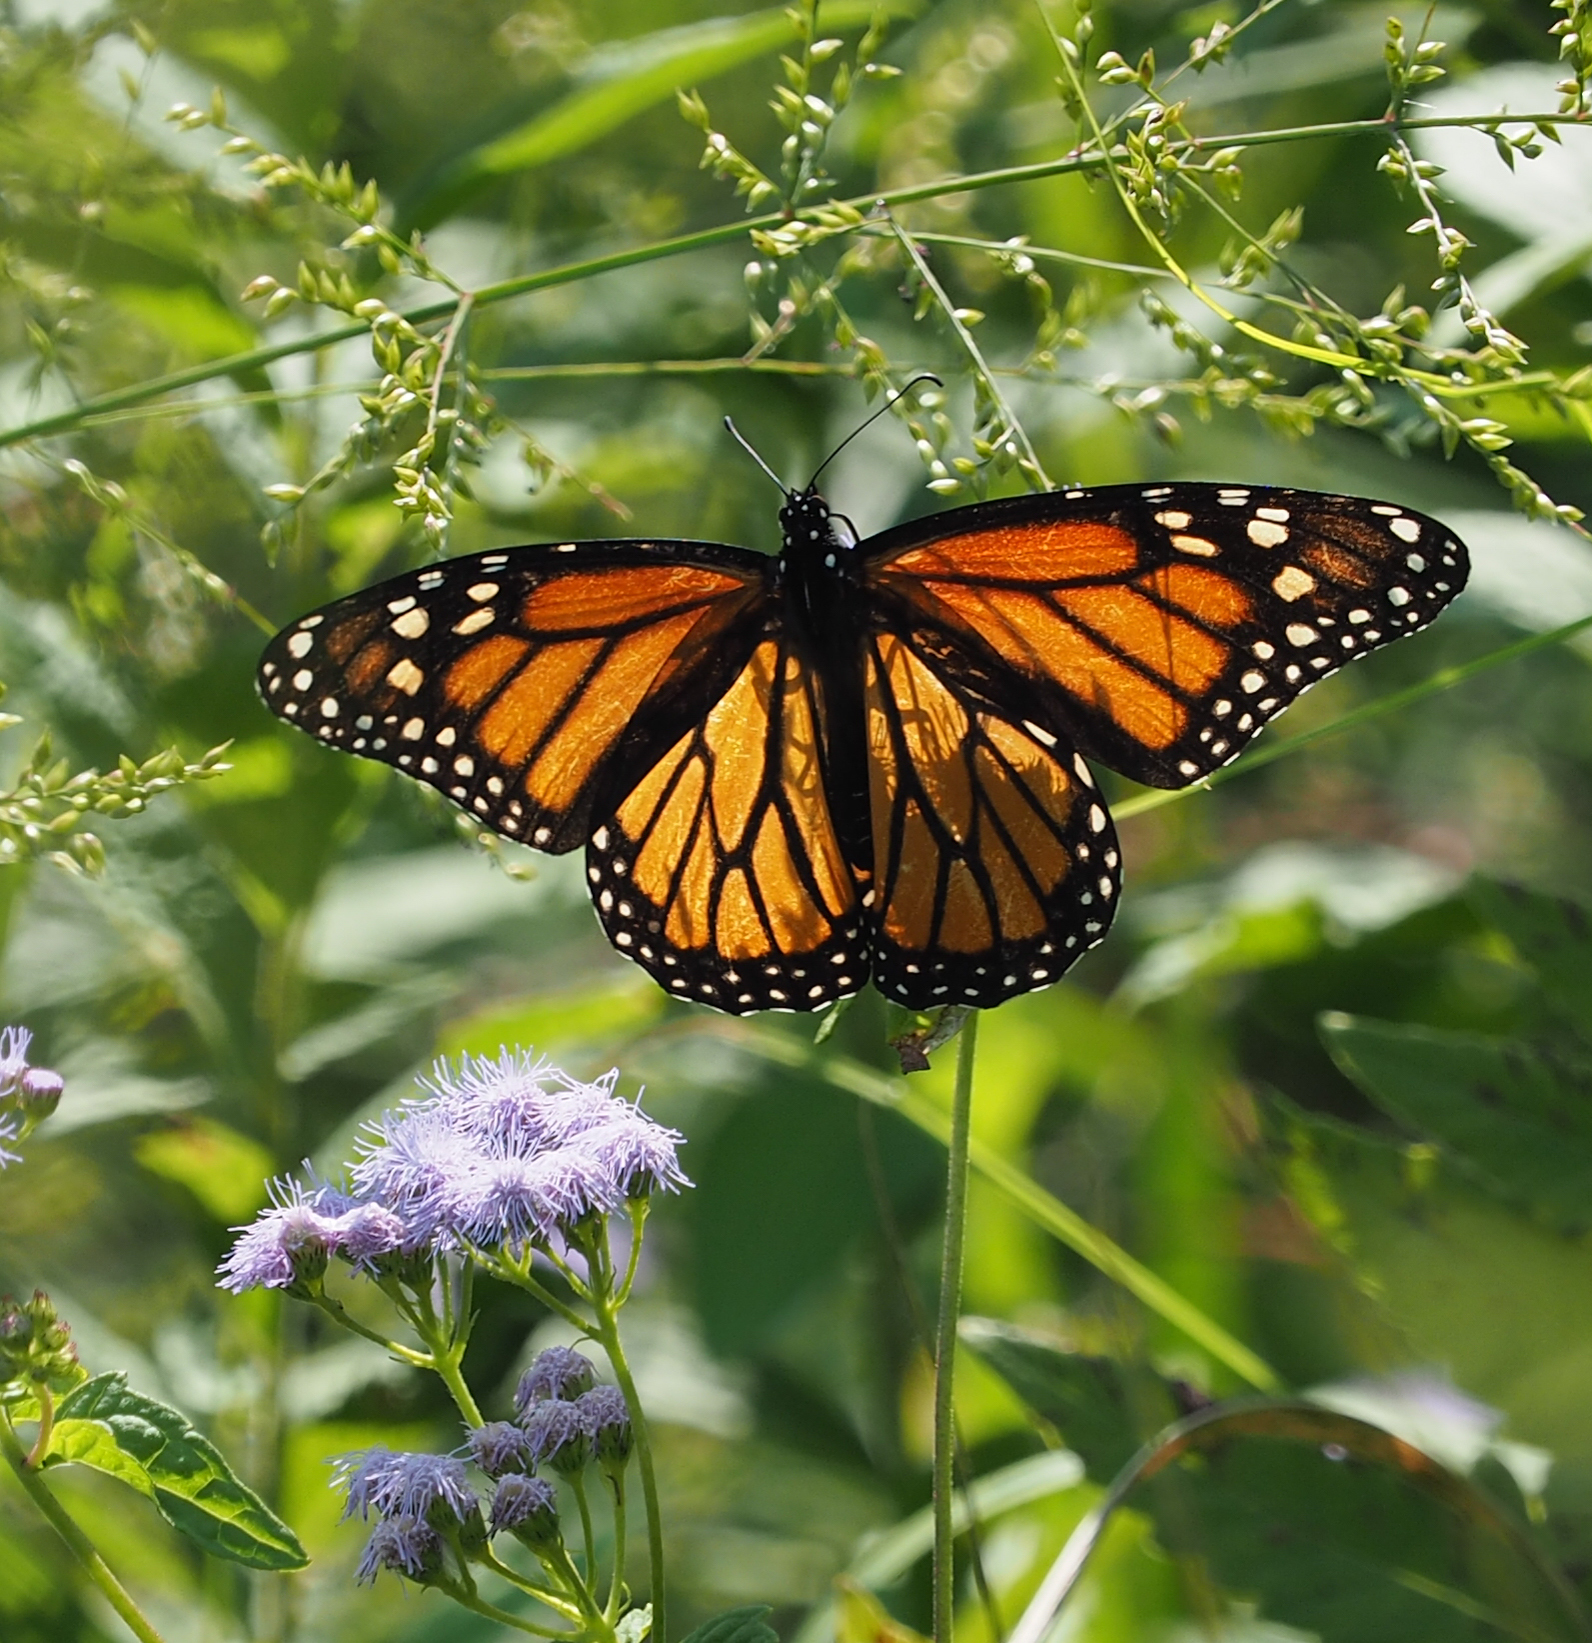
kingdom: Animalia
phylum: Arthropoda
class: Insecta
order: Lepidoptera
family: Nymphalidae
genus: Danaus
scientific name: Danaus plexippus
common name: Monarch
